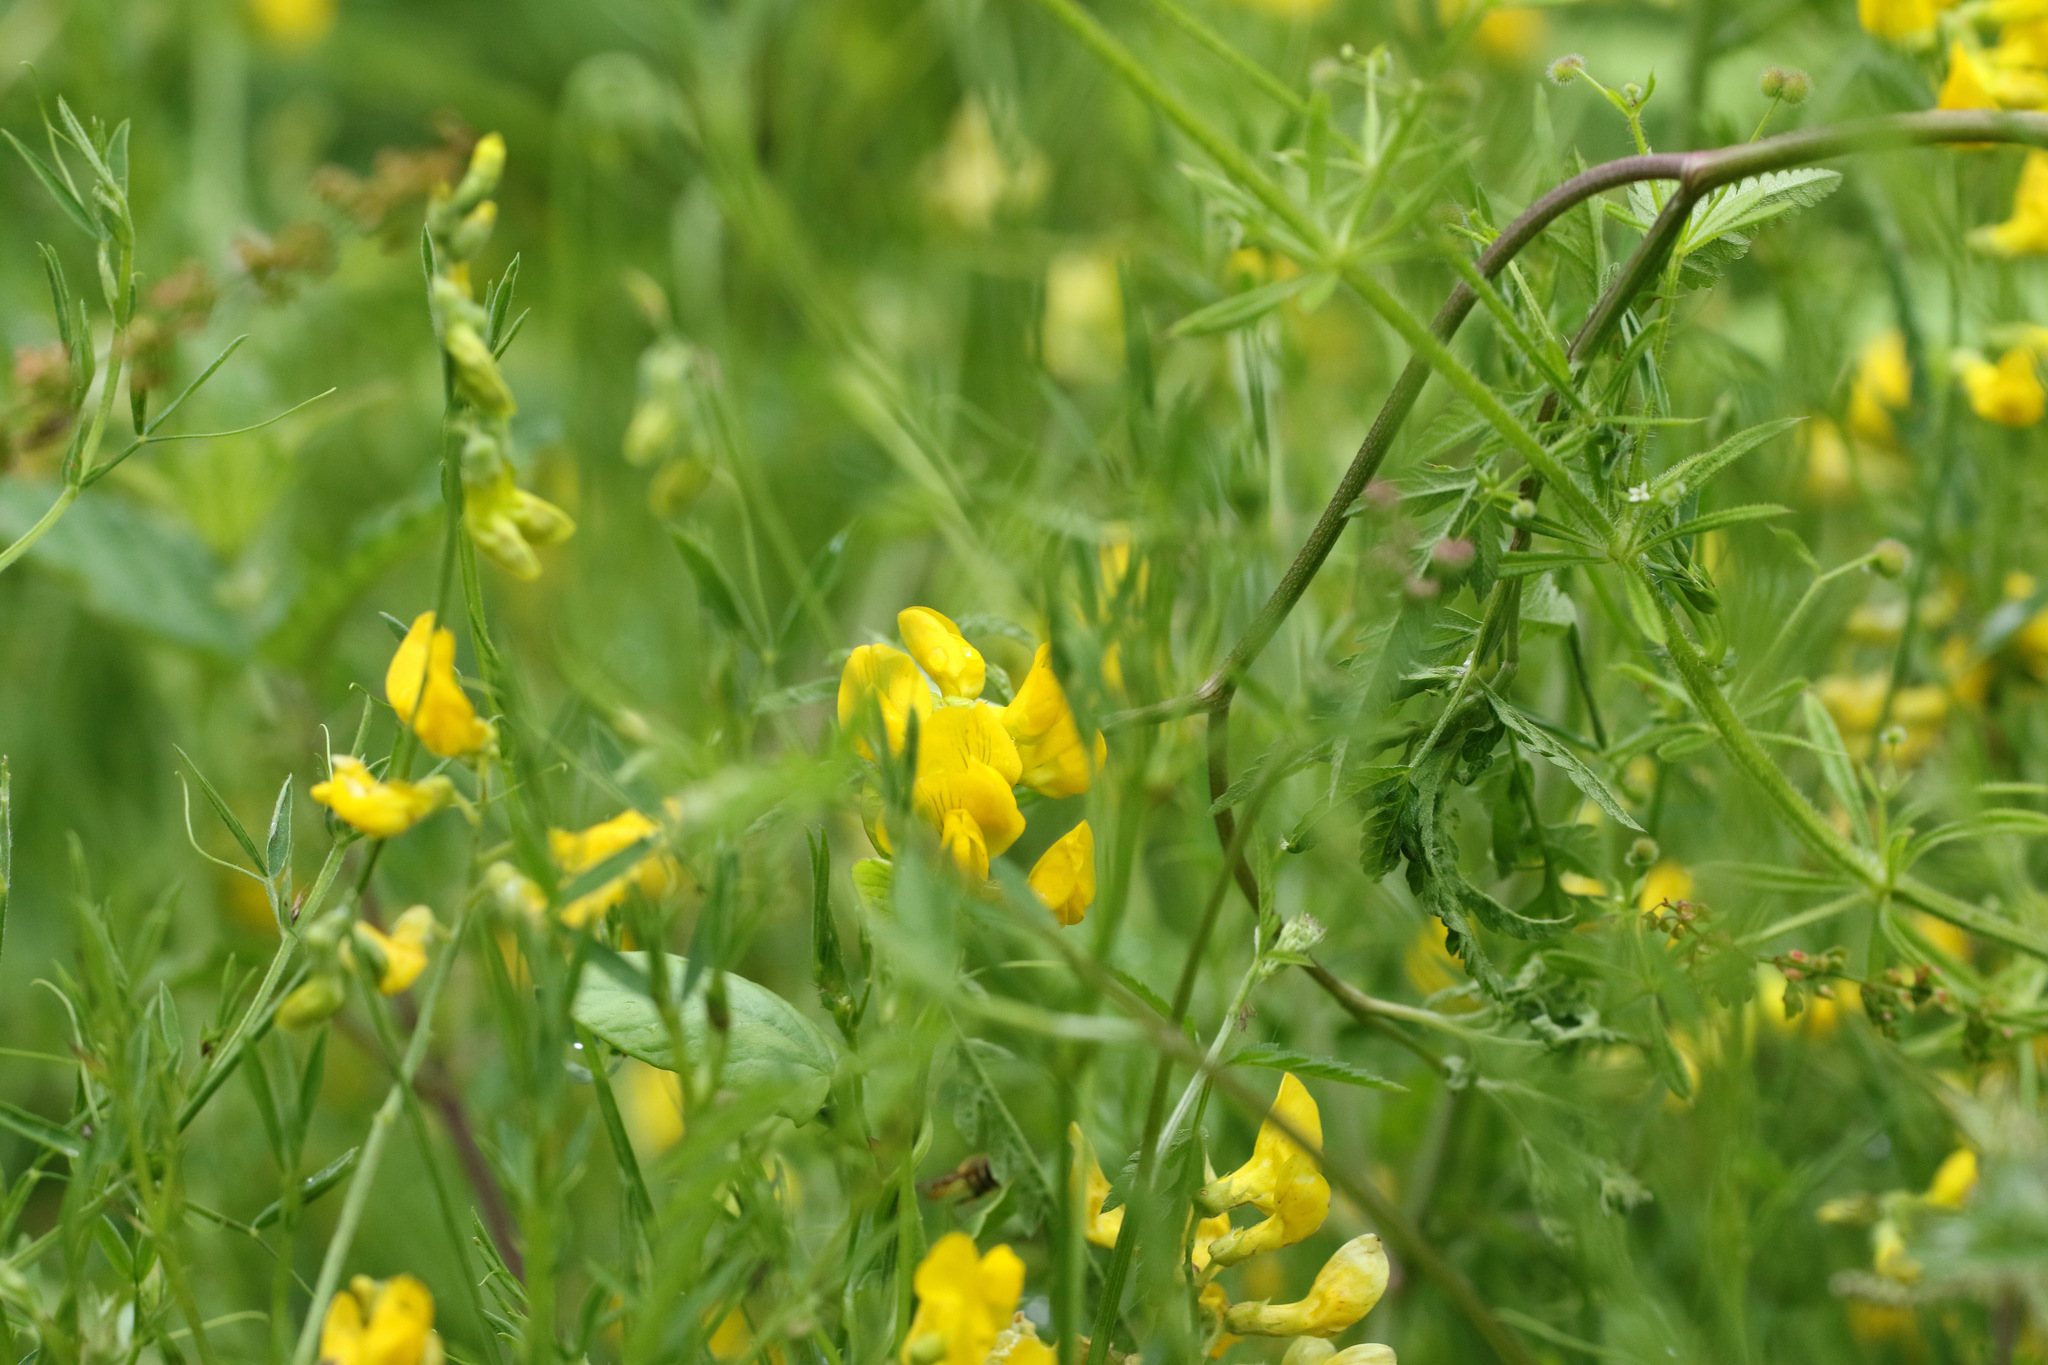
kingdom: Plantae
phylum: Tracheophyta
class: Magnoliopsida
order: Fabales
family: Fabaceae
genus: Lathyrus
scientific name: Lathyrus pratensis
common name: Meadow vetchling
